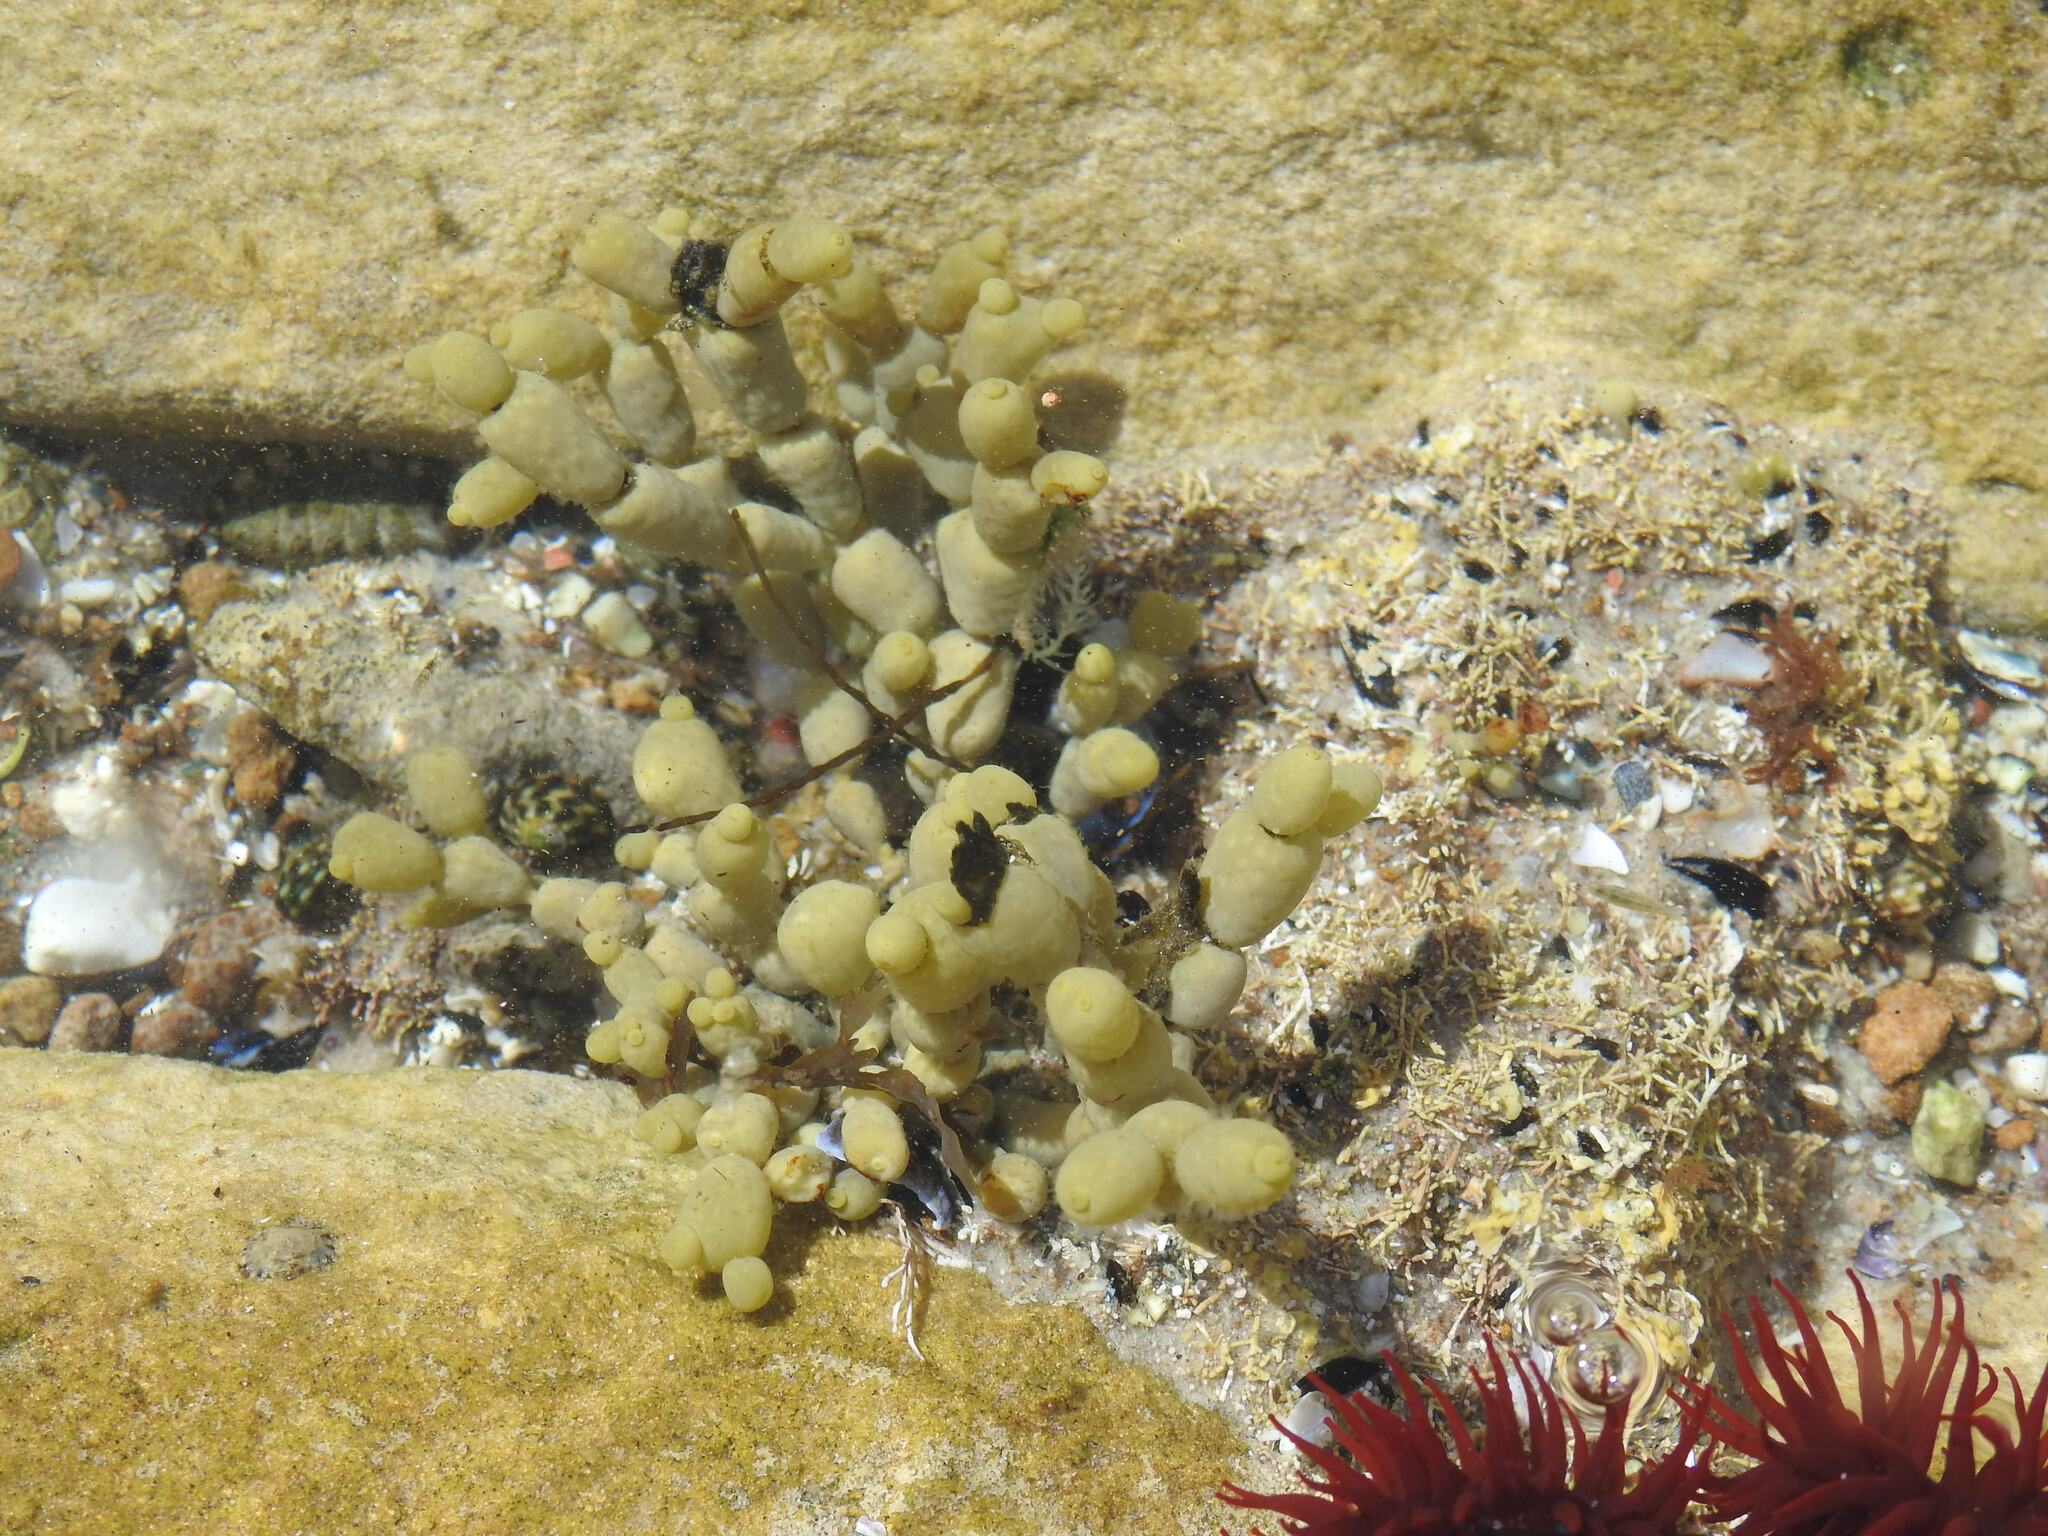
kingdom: Chromista
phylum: Ochrophyta
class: Phaeophyceae
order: Fucales
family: Hormosiraceae
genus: Hormosira
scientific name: Hormosira banksii
